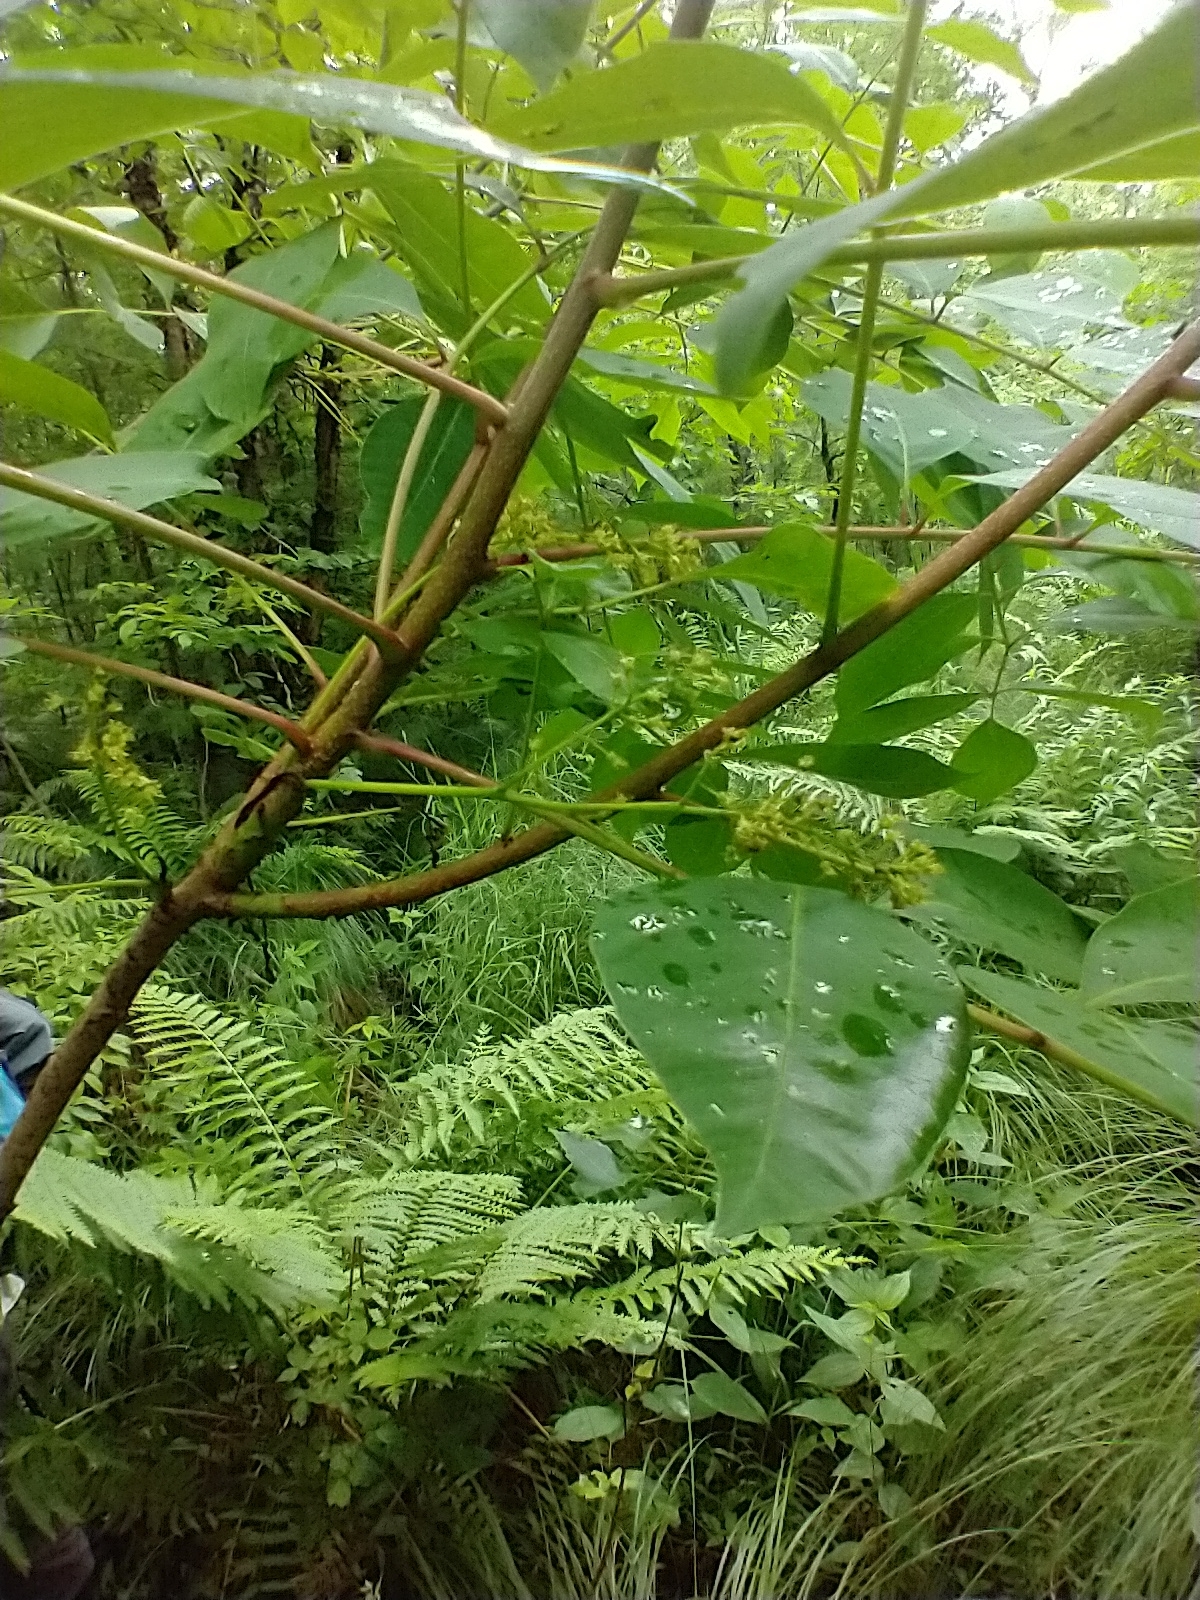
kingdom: Plantae
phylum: Tracheophyta
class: Magnoliopsida
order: Sapindales
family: Anacardiaceae
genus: Toxicodendron
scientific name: Toxicodendron vernix
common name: Poison sumac
